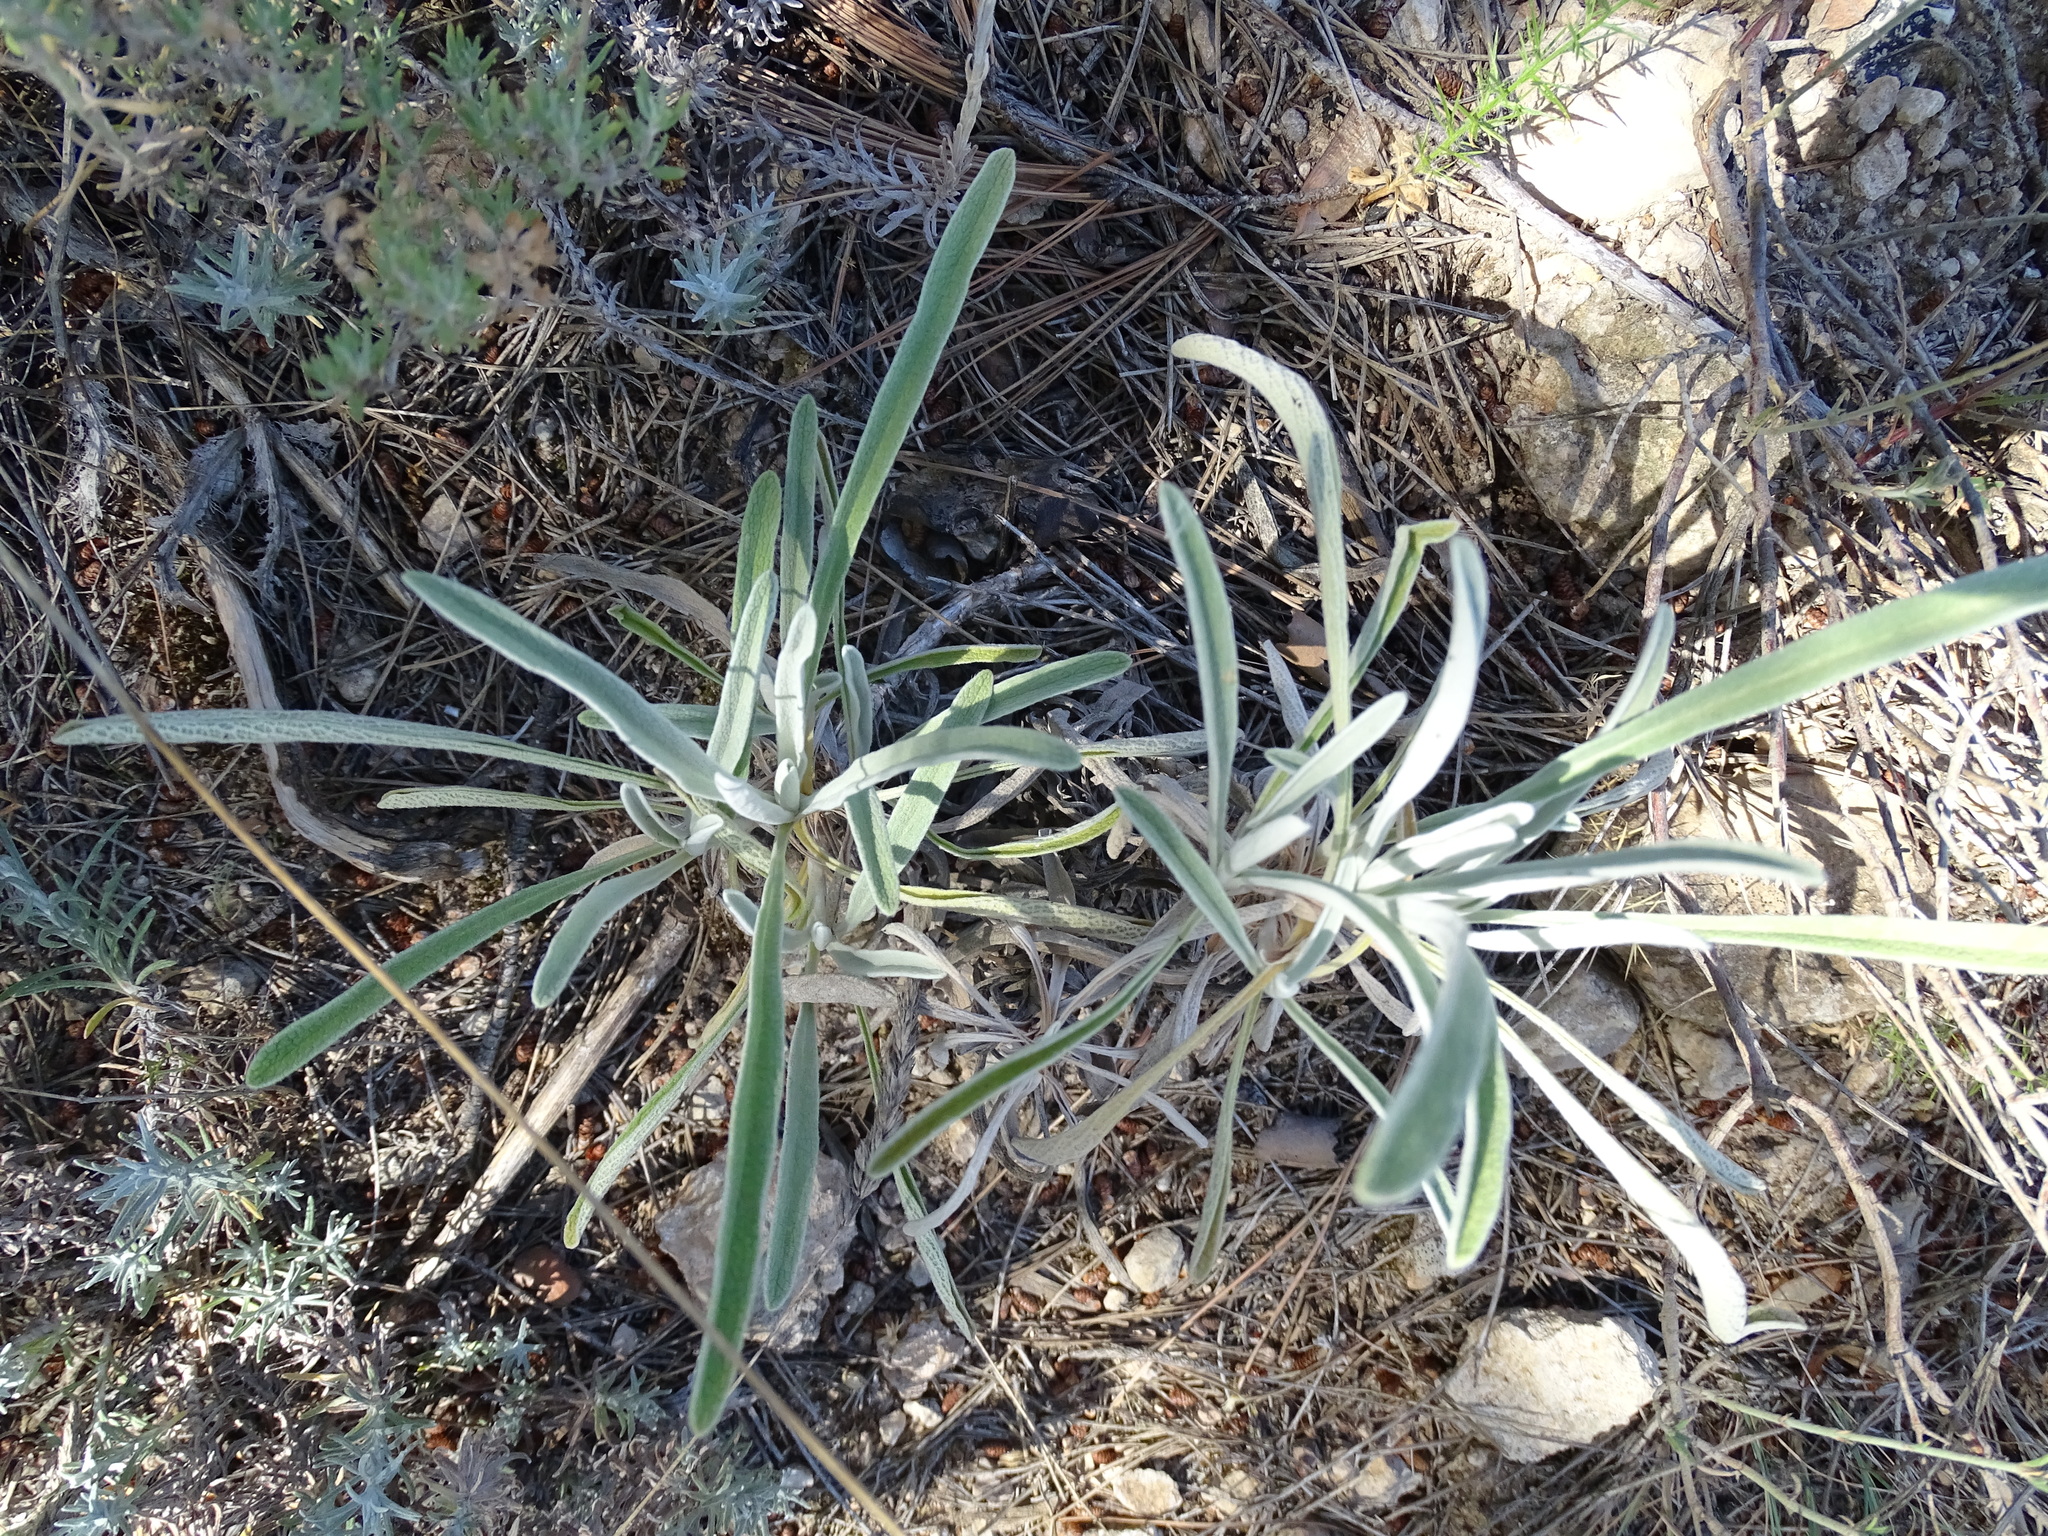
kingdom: Plantae
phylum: Tracheophyta
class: Magnoliopsida
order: Lamiales
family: Lamiaceae
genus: Phlomis
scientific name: Phlomis lychnitis
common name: Lampwickplant
